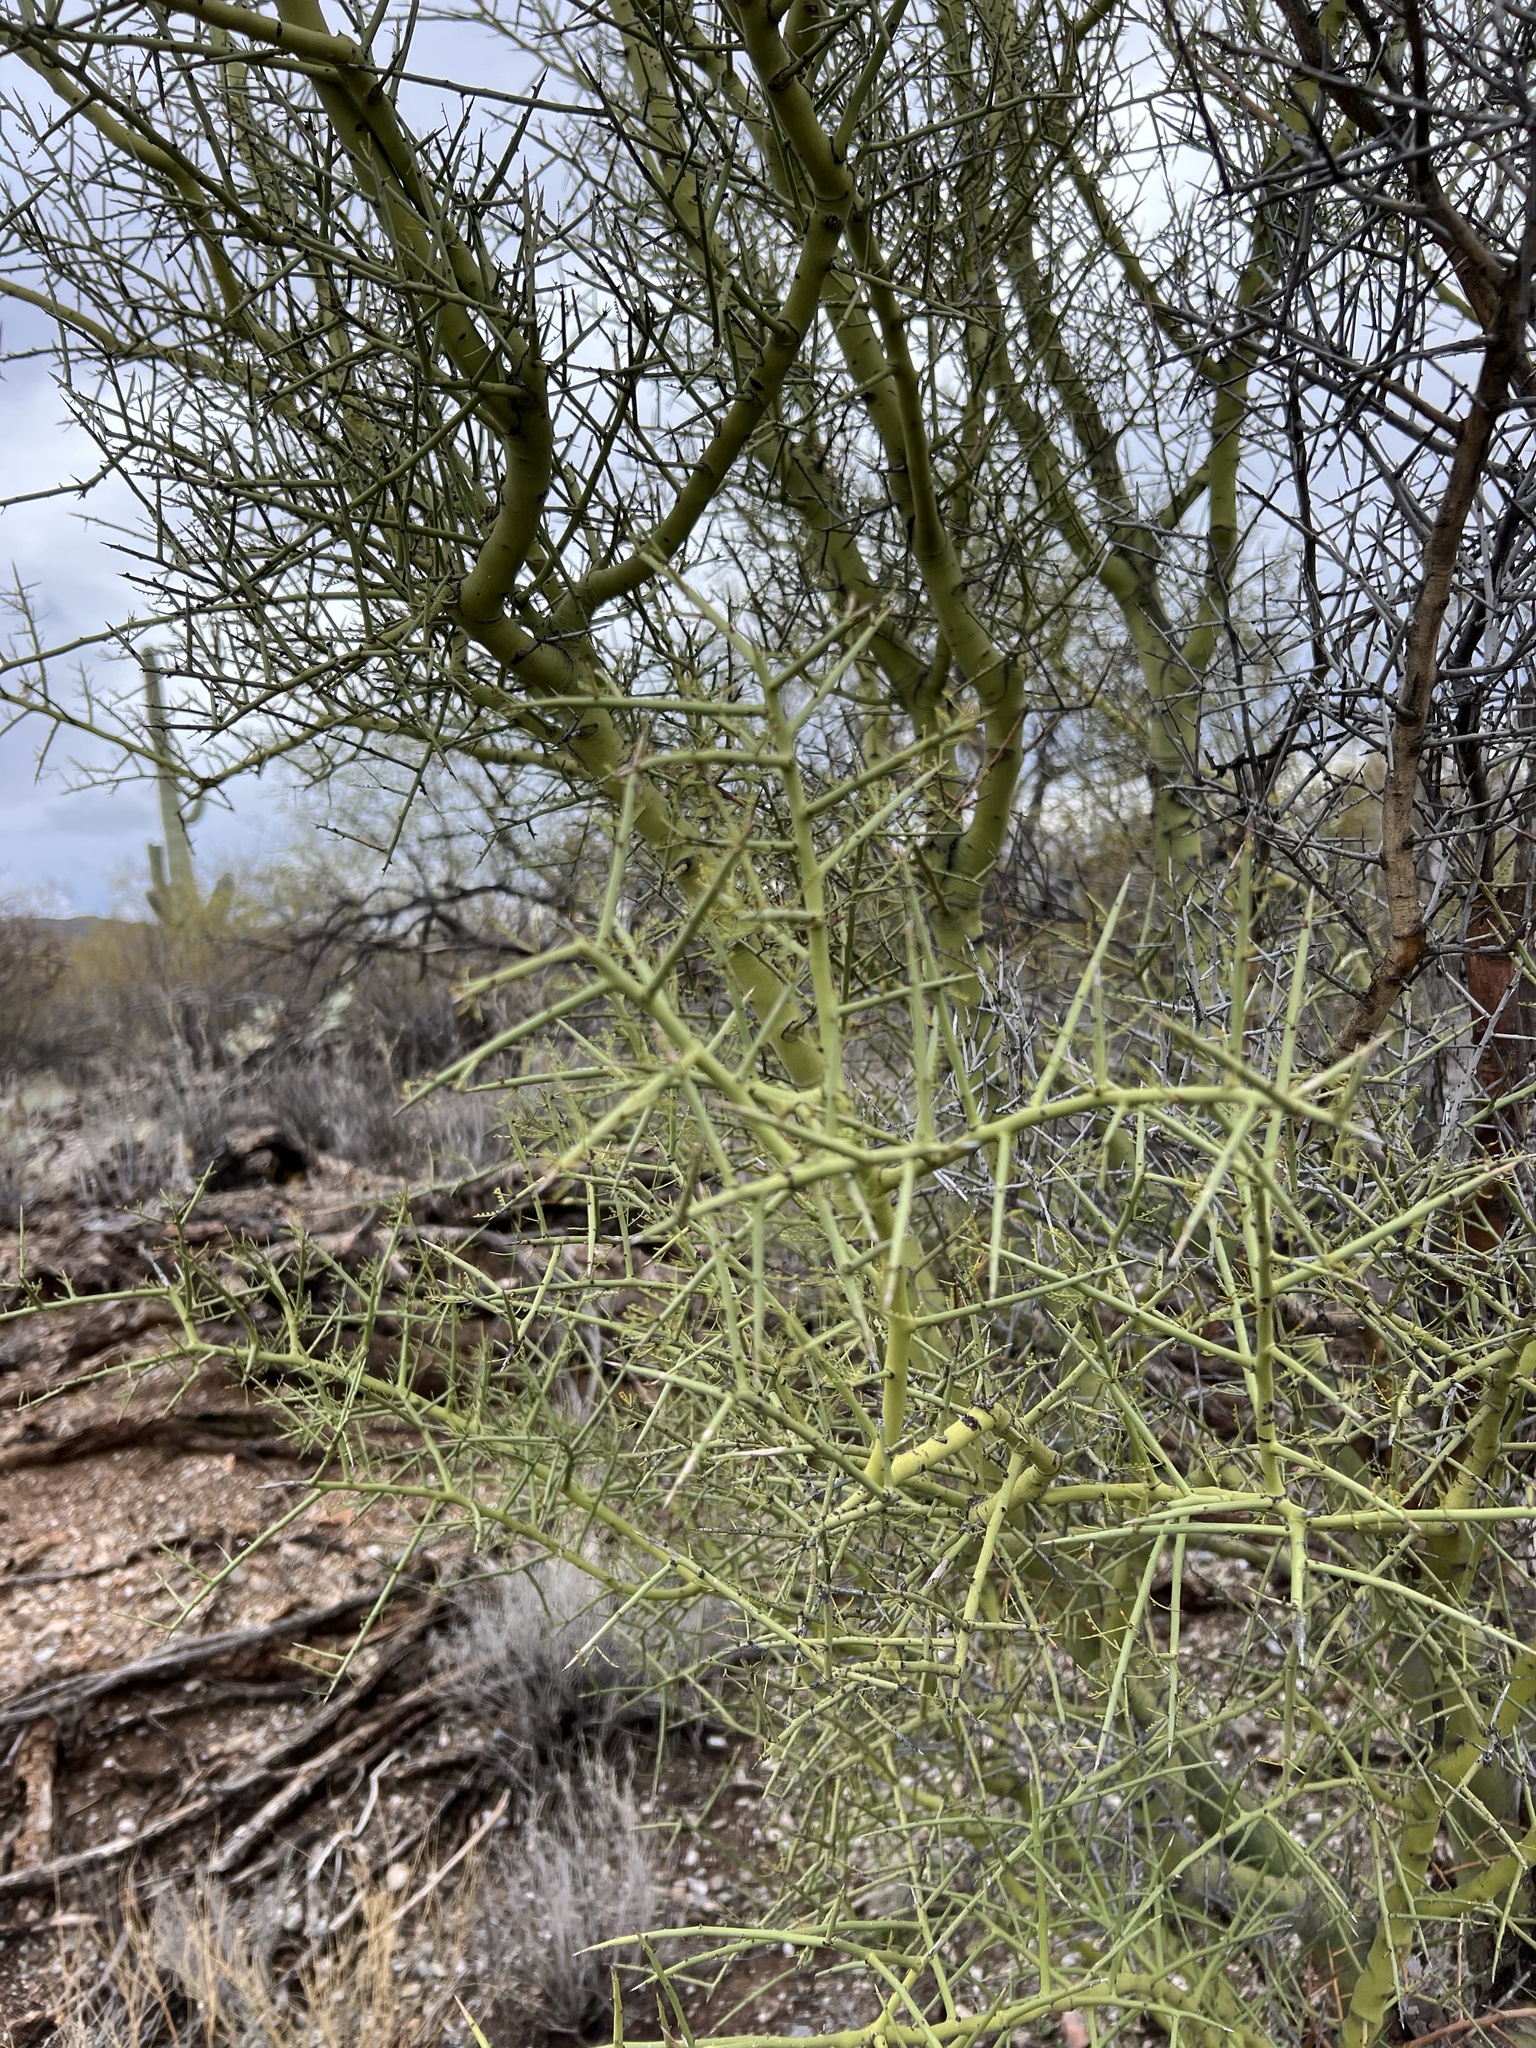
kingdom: Plantae
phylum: Tracheophyta
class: Magnoliopsida
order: Fabales
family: Fabaceae
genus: Parkinsonia
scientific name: Parkinsonia microphylla
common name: Yellow paloverde
